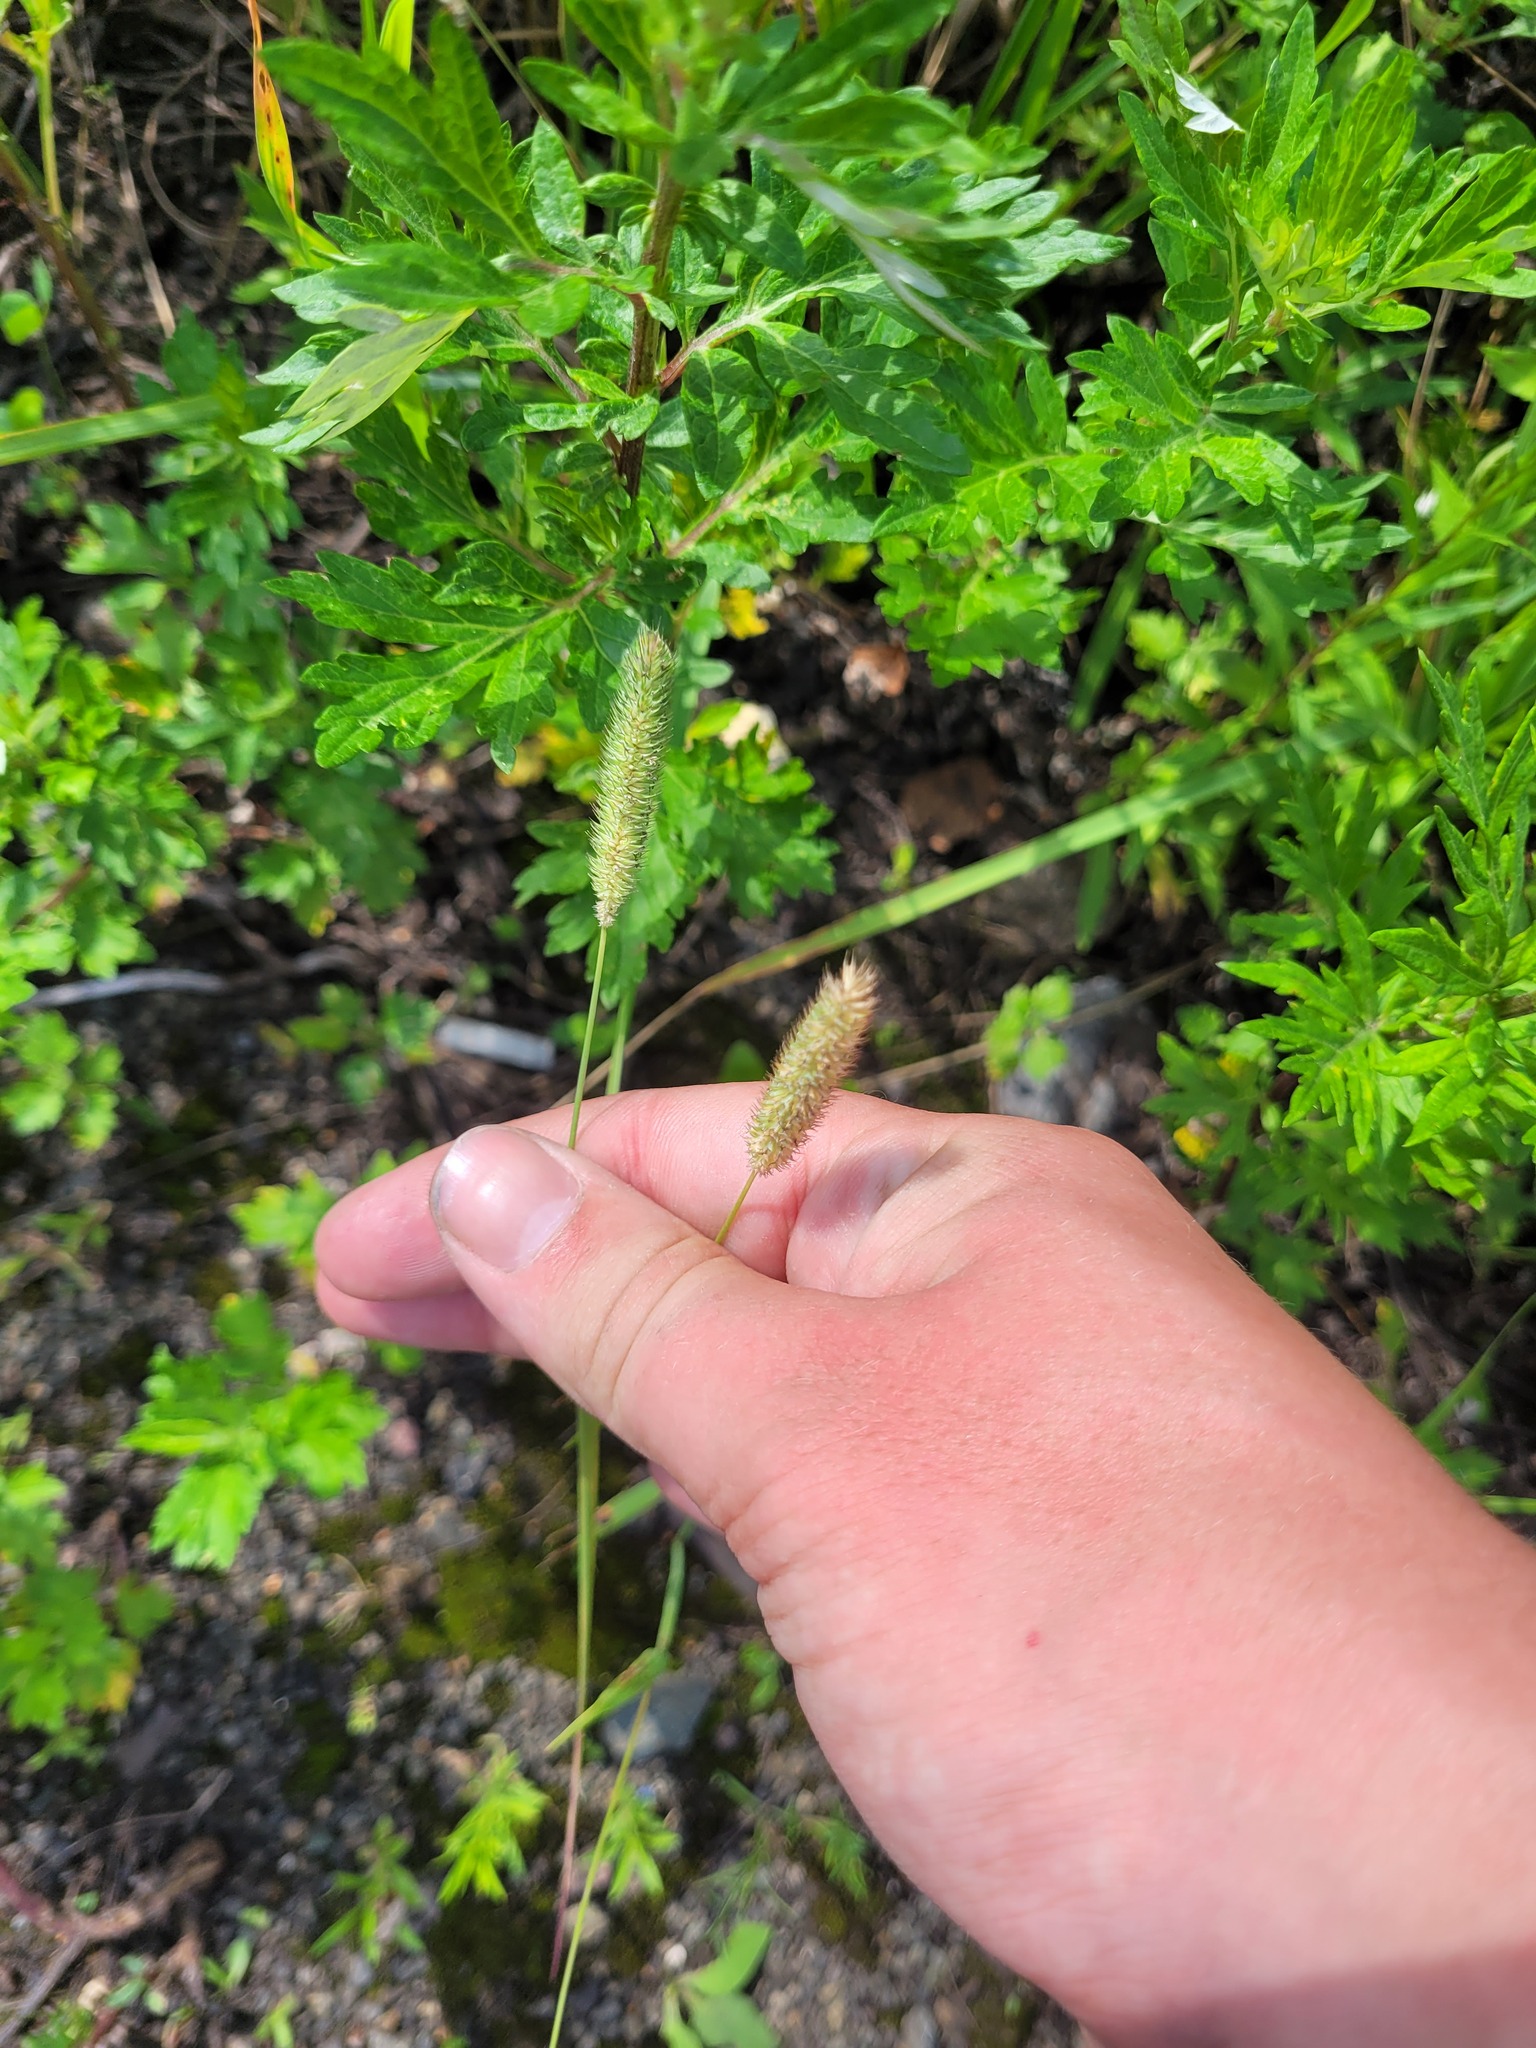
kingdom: Plantae
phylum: Tracheophyta
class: Liliopsida
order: Poales
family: Poaceae
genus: Phleum
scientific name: Phleum pratense
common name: Timothy grass
